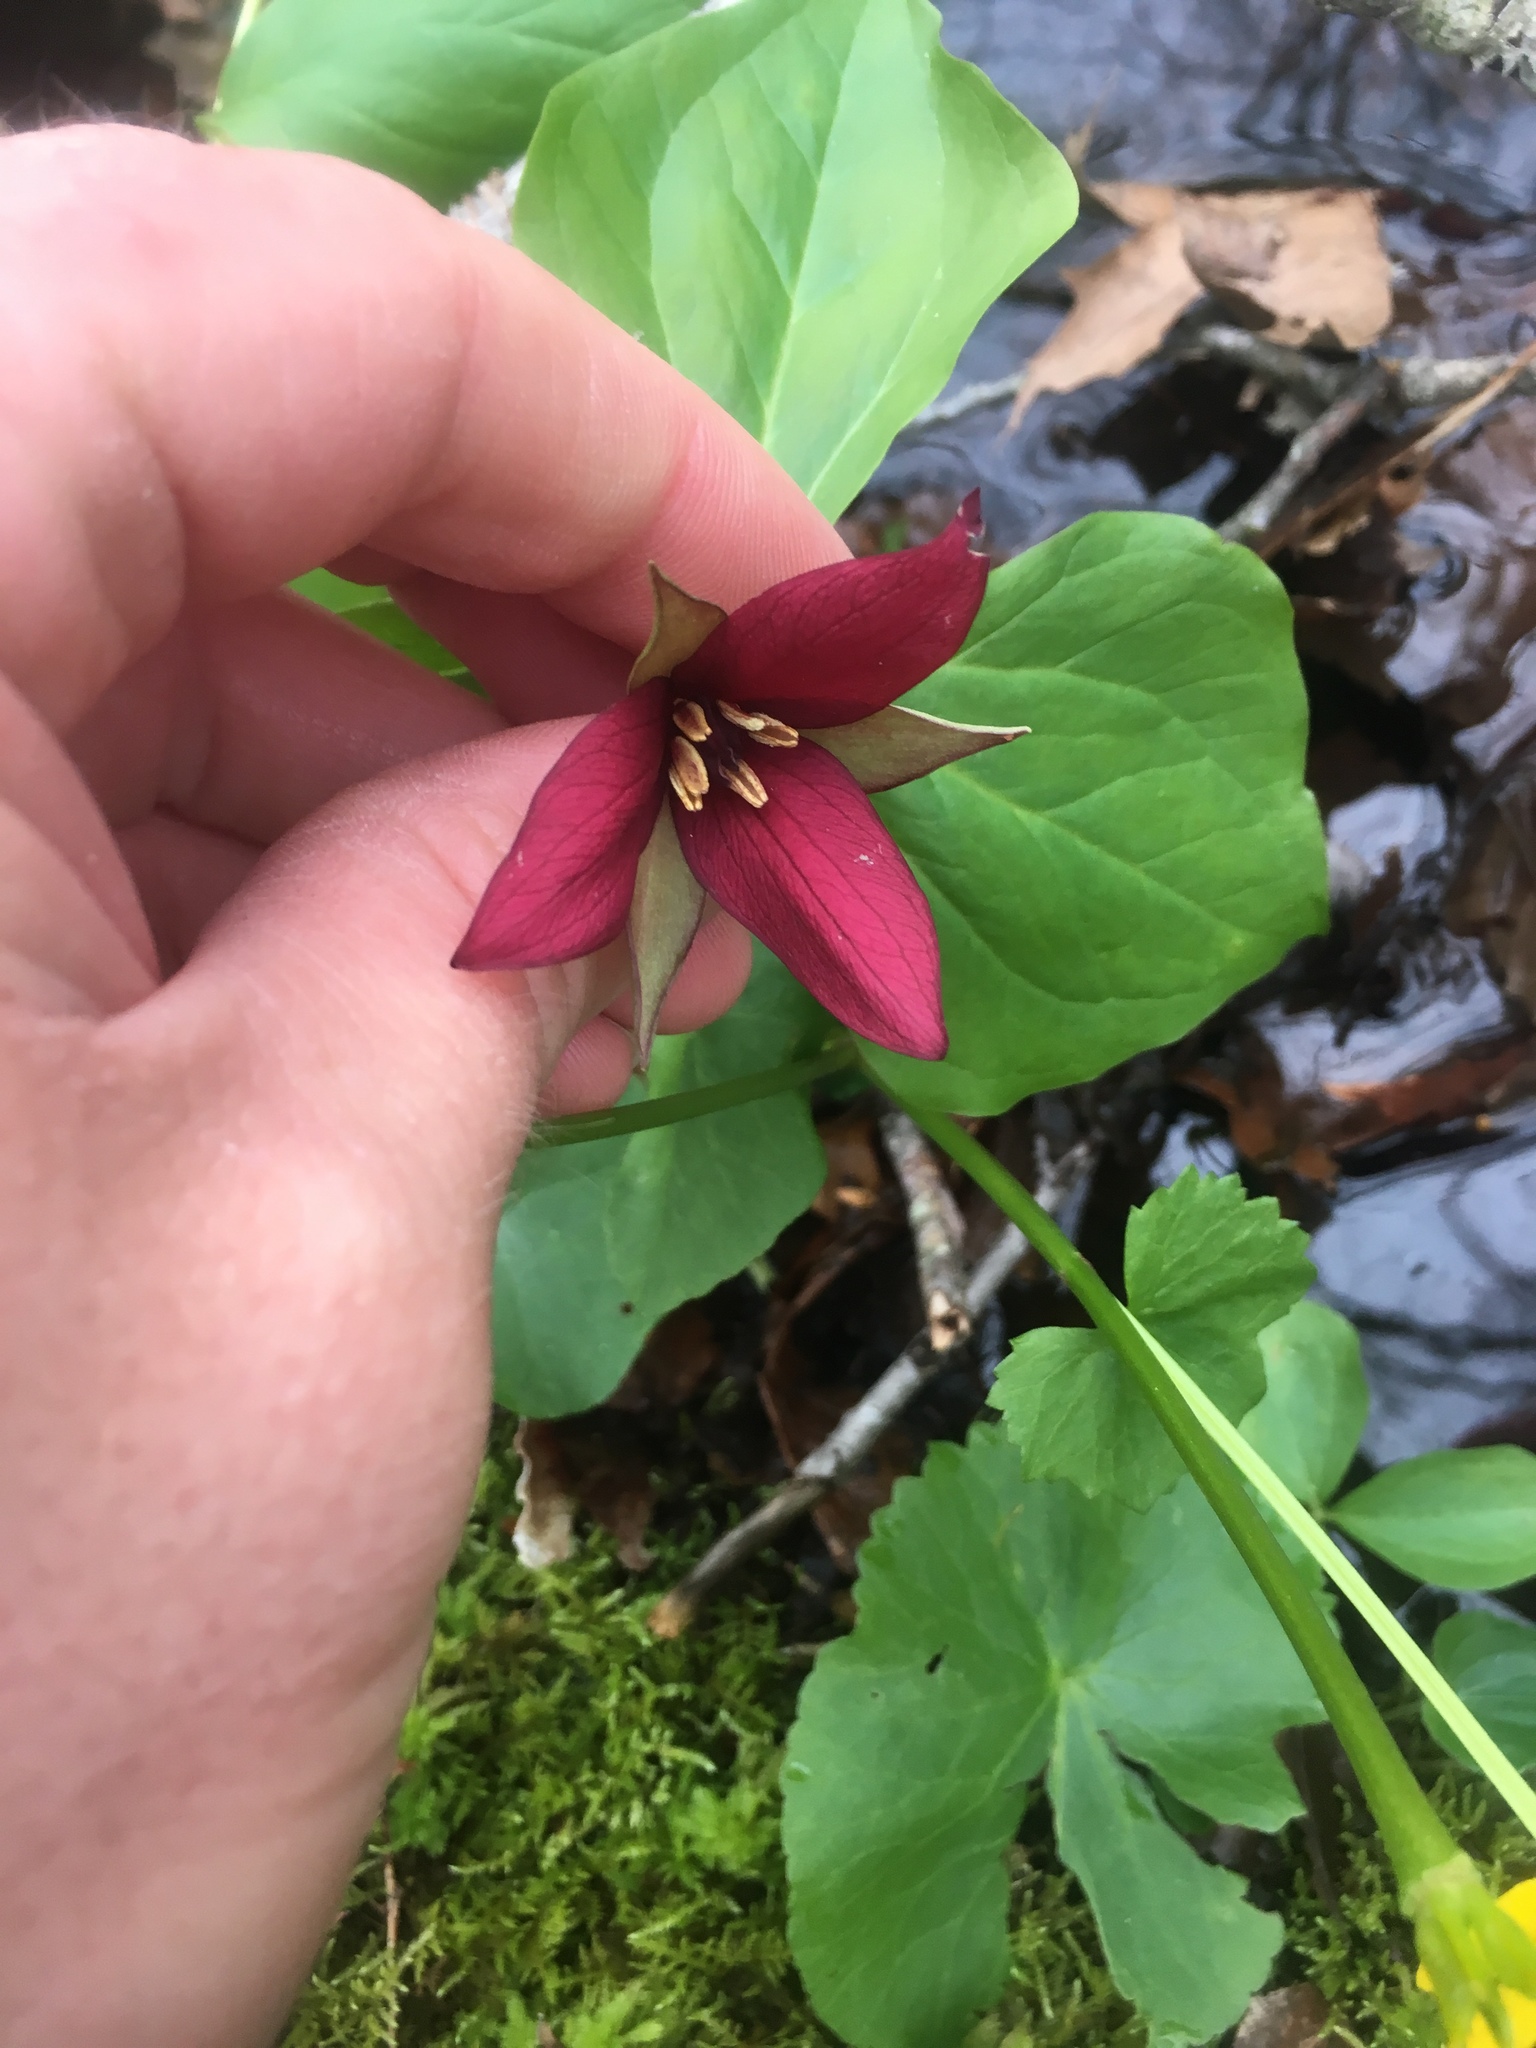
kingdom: Plantae
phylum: Tracheophyta
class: Liliopsida
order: Liliales
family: Melanthiaceae
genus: Trillium
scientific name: Trillium erectum
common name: Purple trillium
